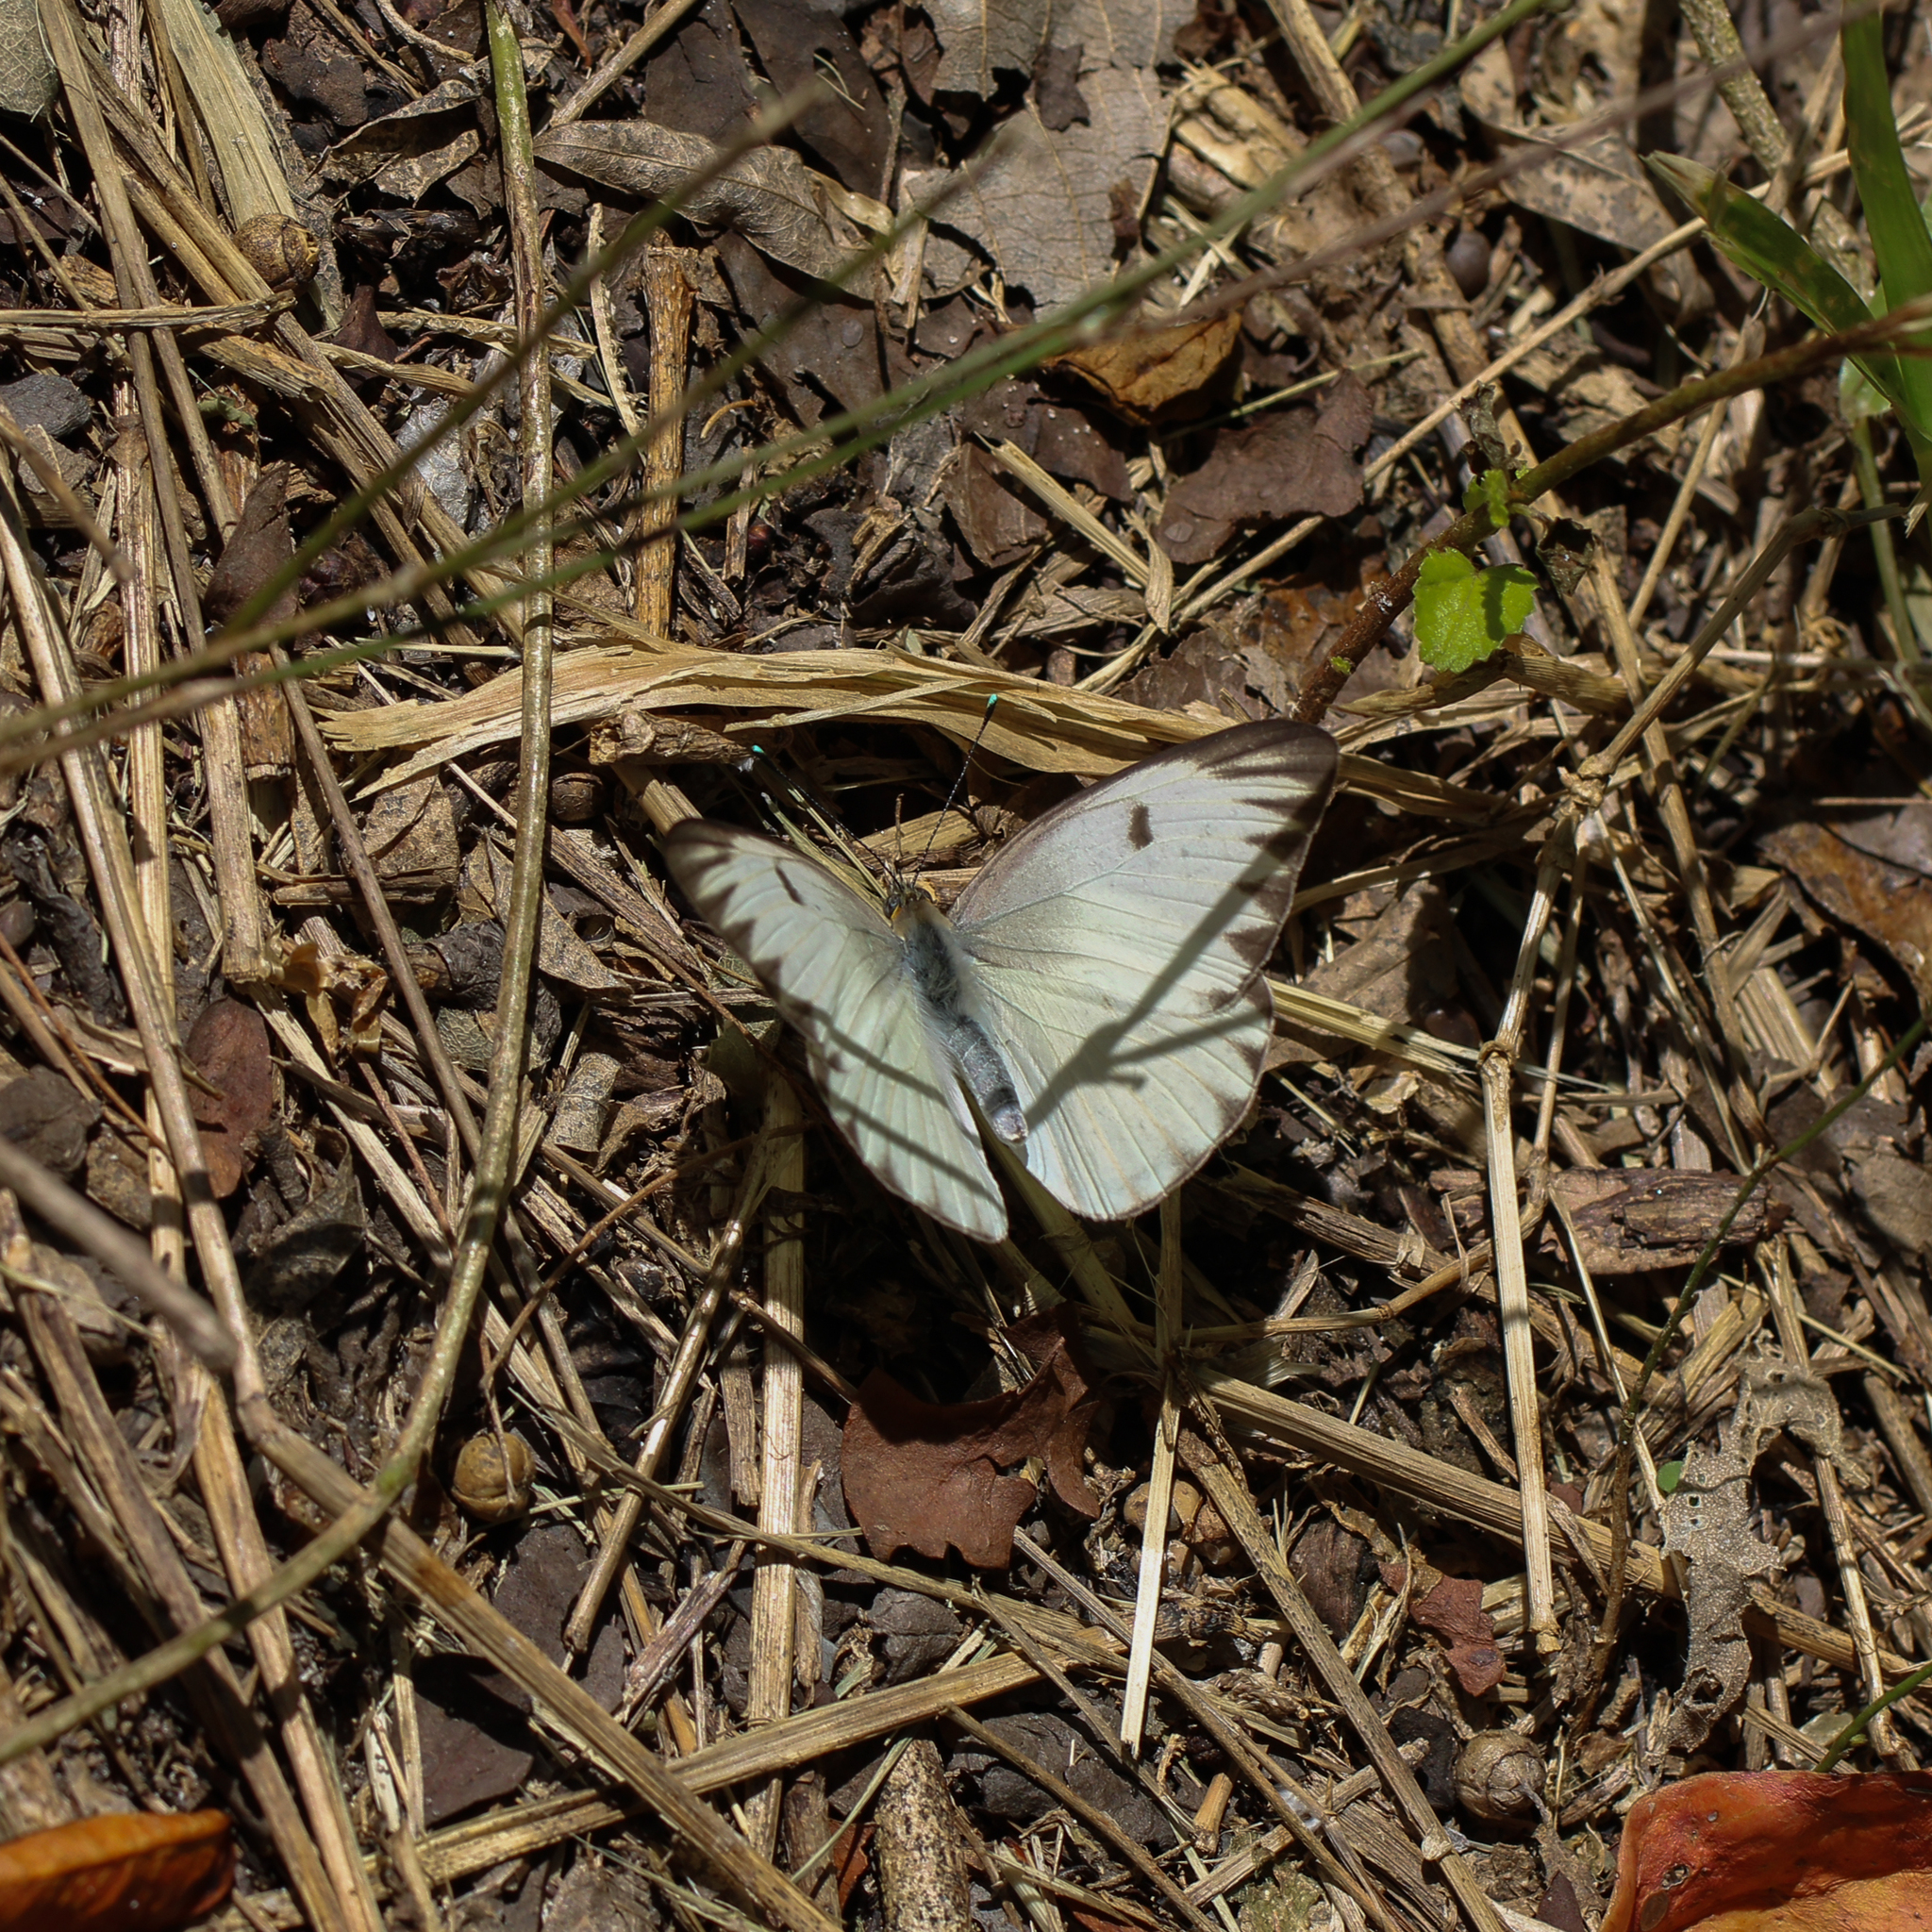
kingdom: Animalia
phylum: Arthropoda
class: Insecta
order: Lepidoptera
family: Pieridae
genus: Ascia
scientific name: Ascia monuste
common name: Great southern white
